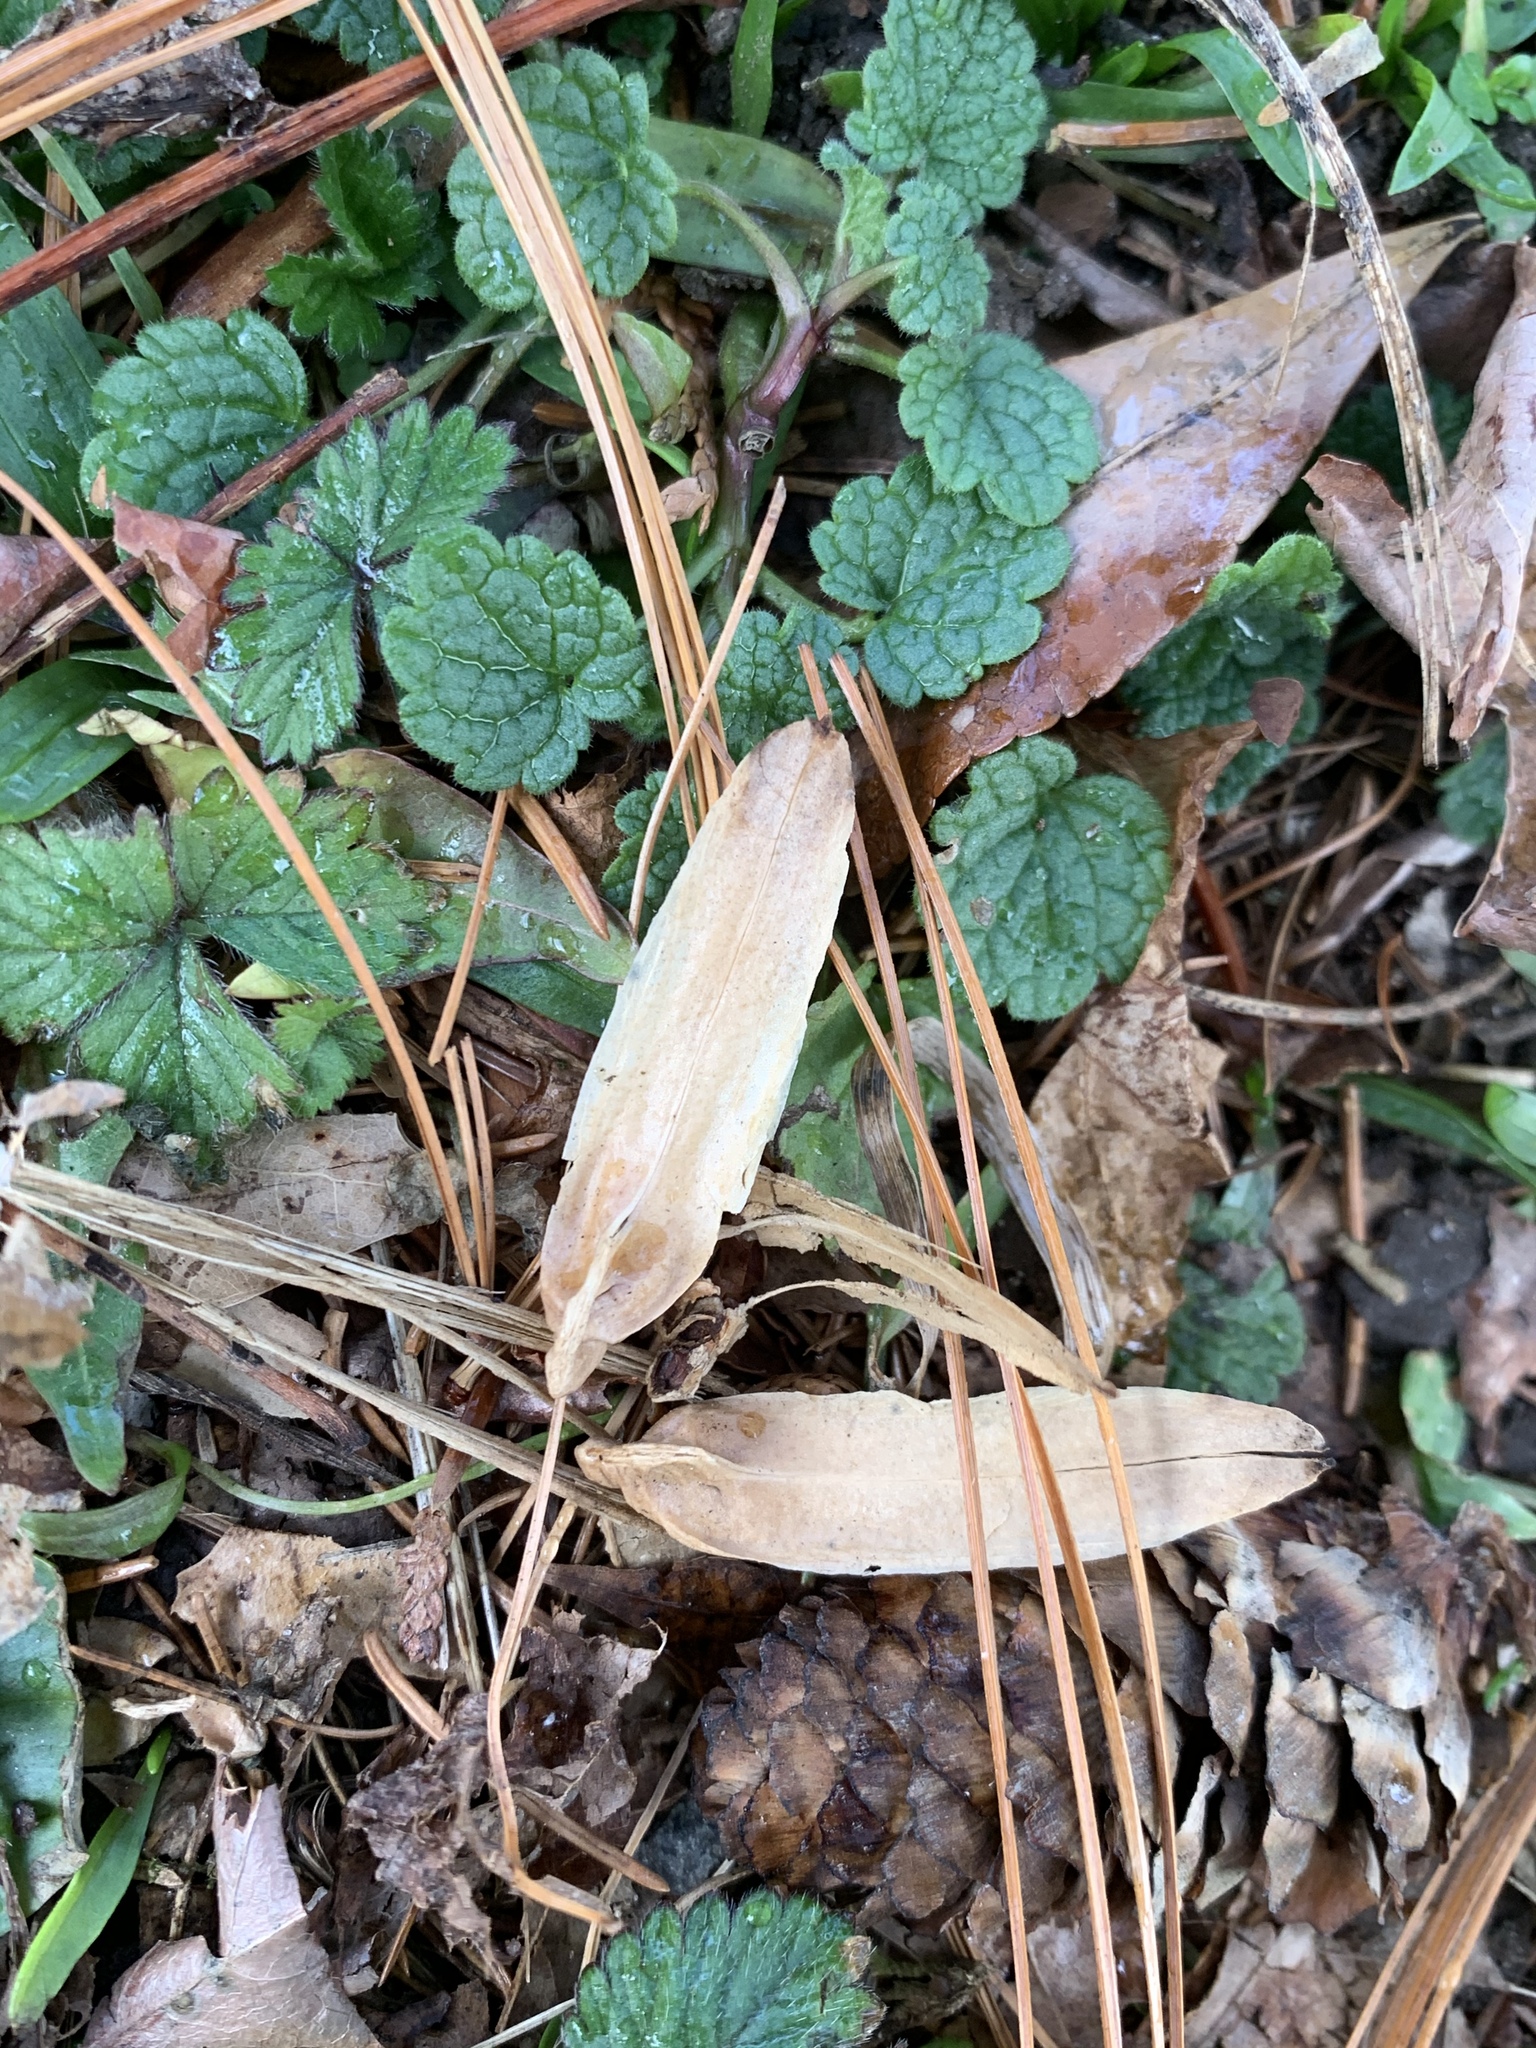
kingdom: Plantae
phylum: Tracheophyta
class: Magnoliopsida
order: Magnoliales
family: Magnoliaceae
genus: Liriodendron
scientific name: Liriodendron tulipifera
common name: Tulip tree
